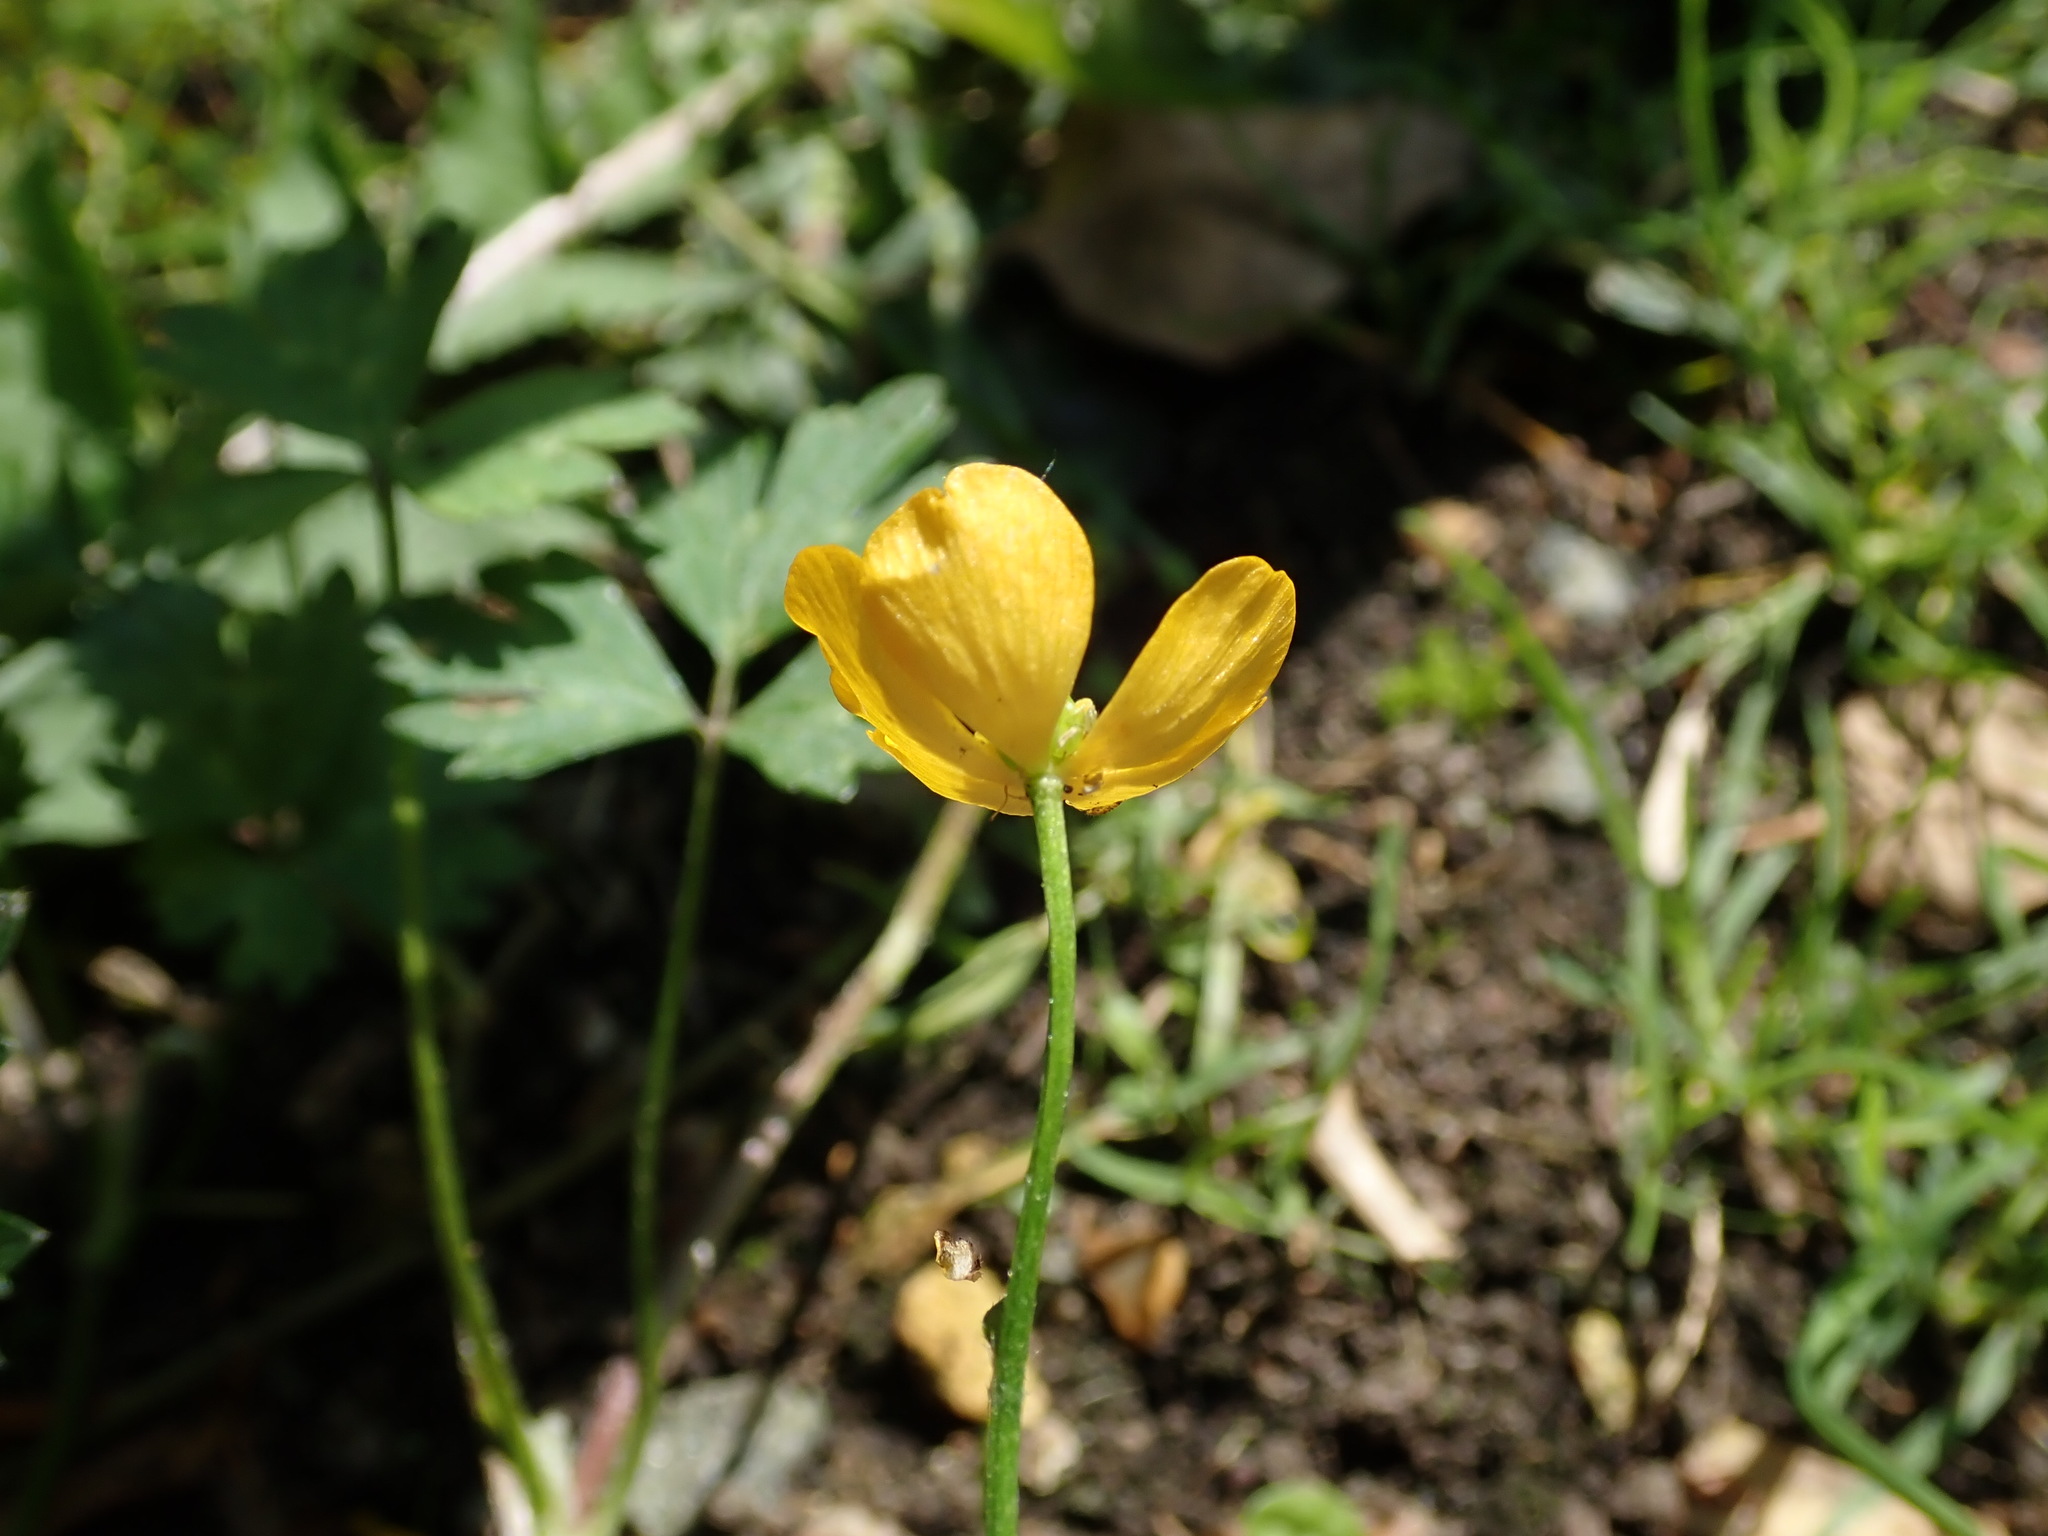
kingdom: Plantae
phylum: Tracheophyta
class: Magnoliopsida
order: Ranunculales
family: Ranunculaceae
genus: Ranunculus
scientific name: Ranunculus repens
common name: Creeping buttercup
